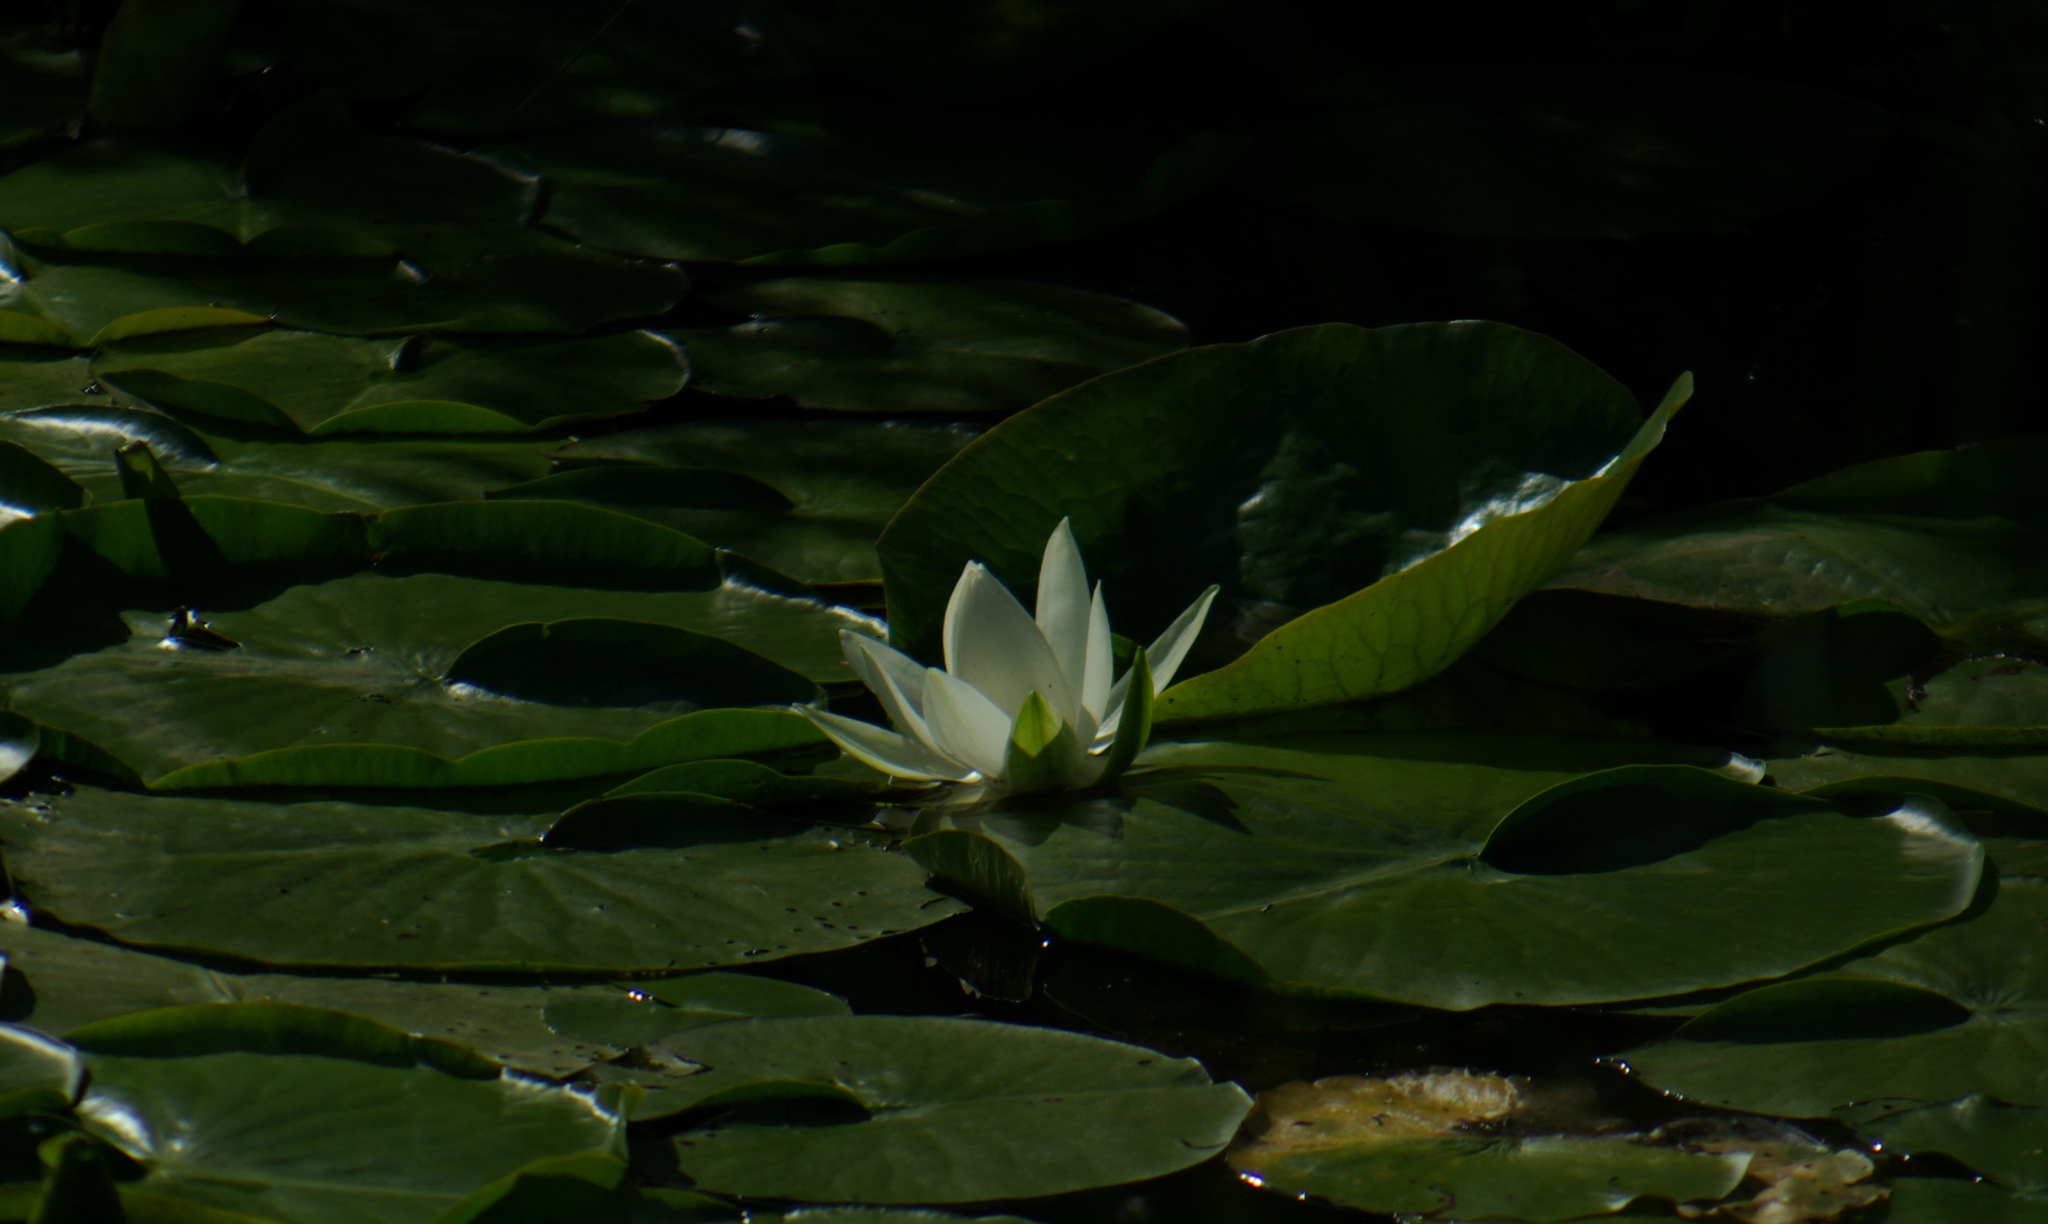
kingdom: Plantae
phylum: Tracheophyta
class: Magnoliopsida
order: Nymphaeales
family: Nymphaeaceae
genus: Nymphaea
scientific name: Nymphaea odorata
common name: Fragrant water-lily
